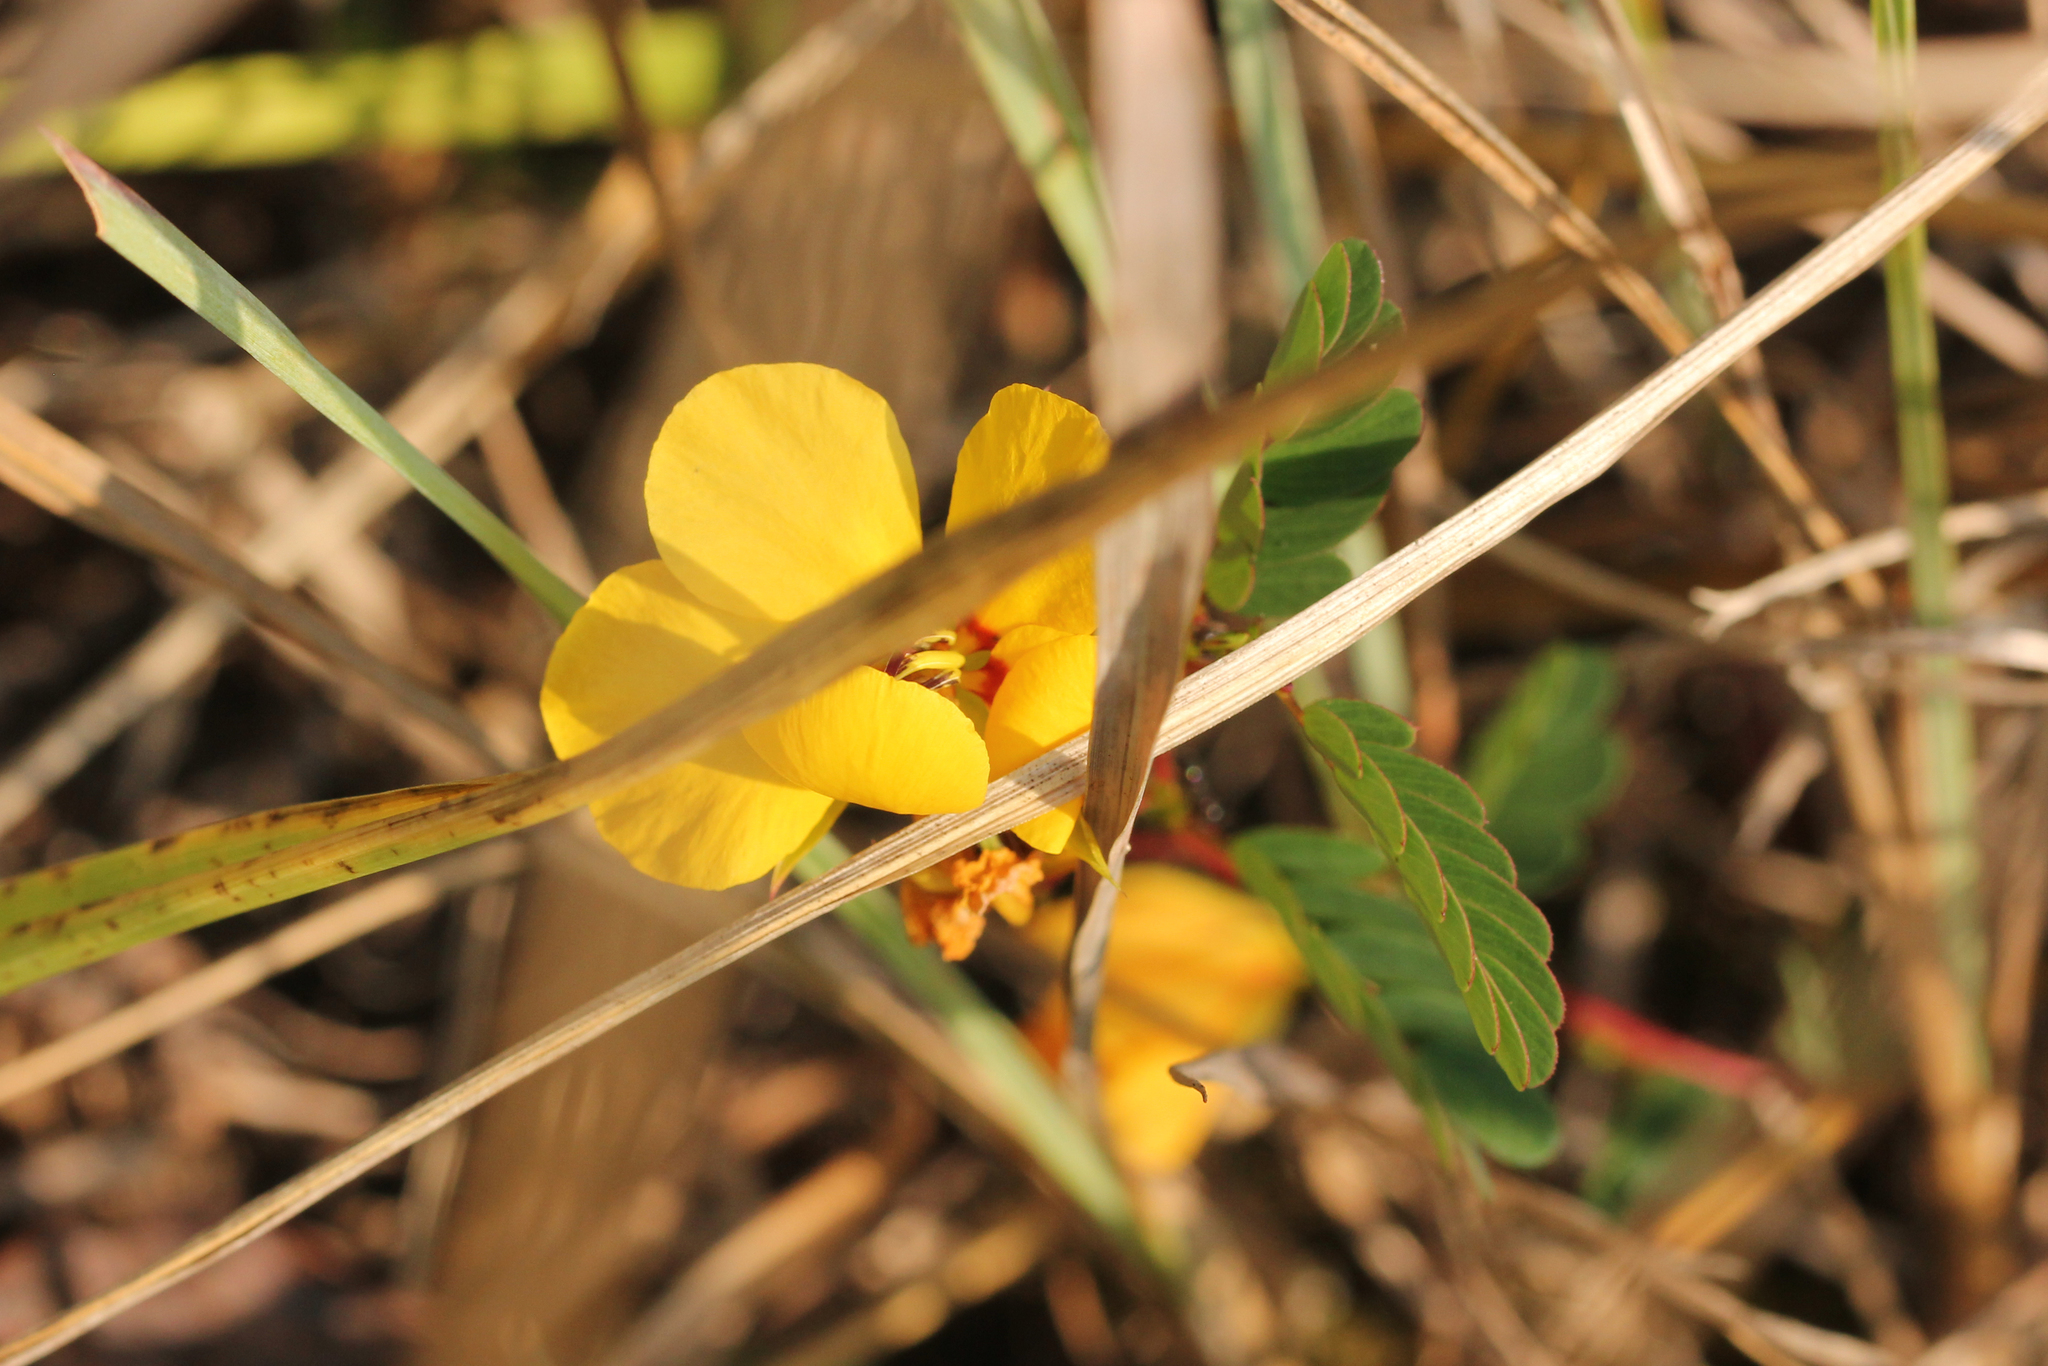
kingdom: Plantae
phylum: Tracheophyta
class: Magnoliopsida
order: Fabales
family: Fabaceae
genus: Chamaecrista
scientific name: Chamaecrista fasciculata
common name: Golden cassia
